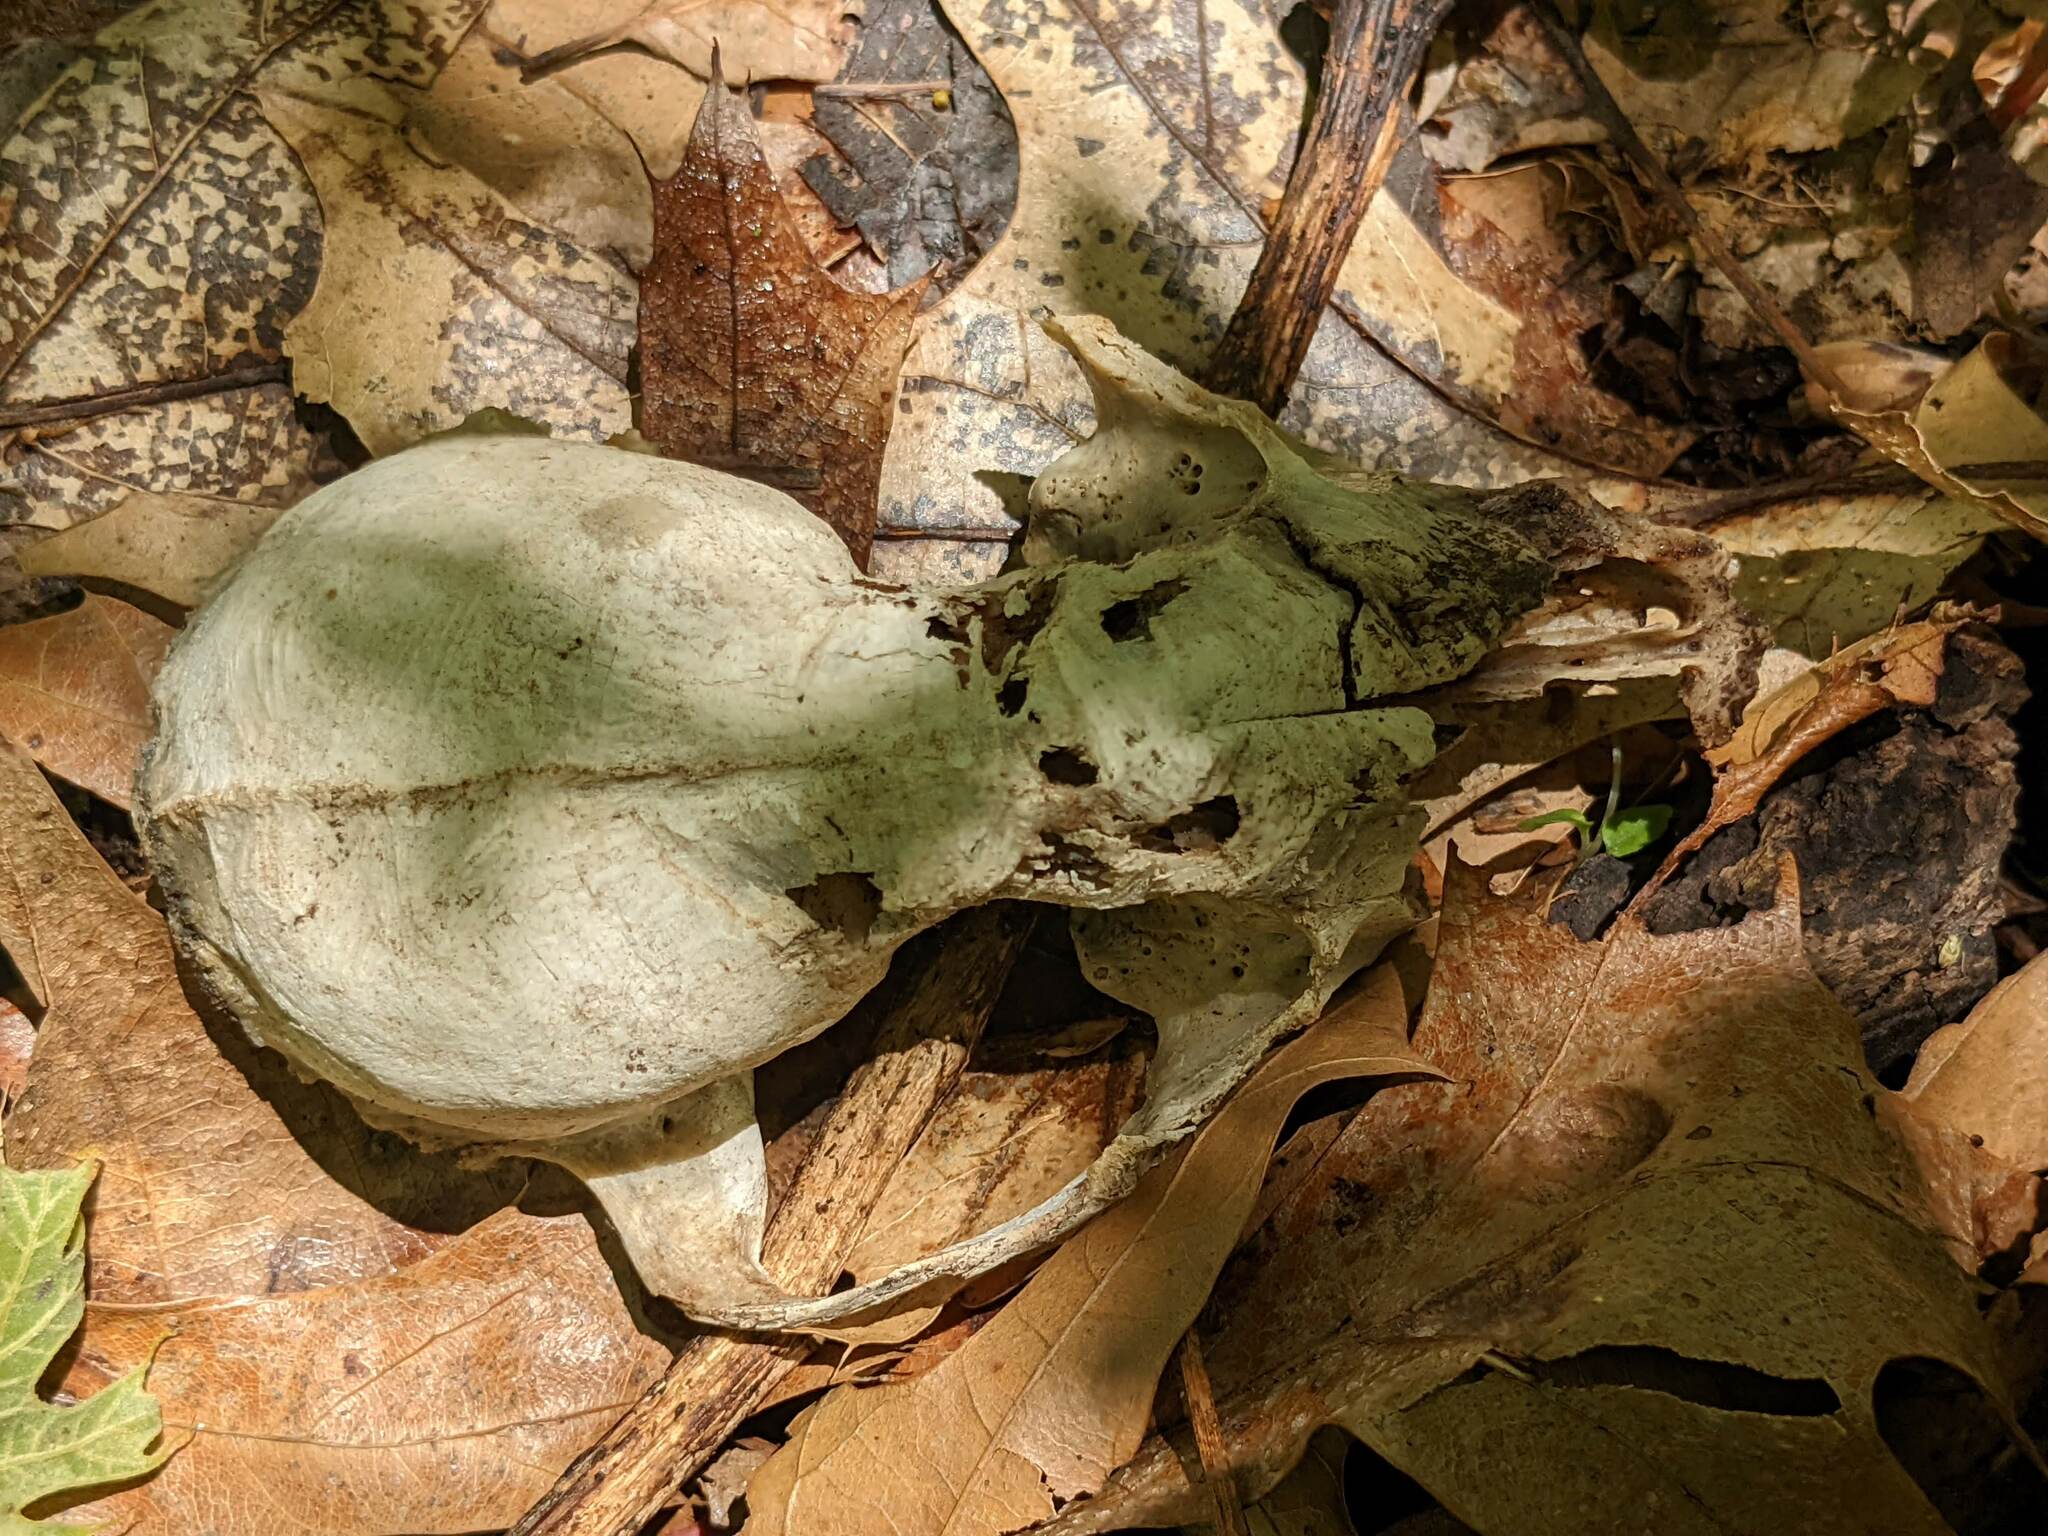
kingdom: Animalia
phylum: Chordata
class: Mammalia
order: Carnivora
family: Procyonidae
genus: Procyon
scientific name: Procyon lotor
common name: Raccoon
